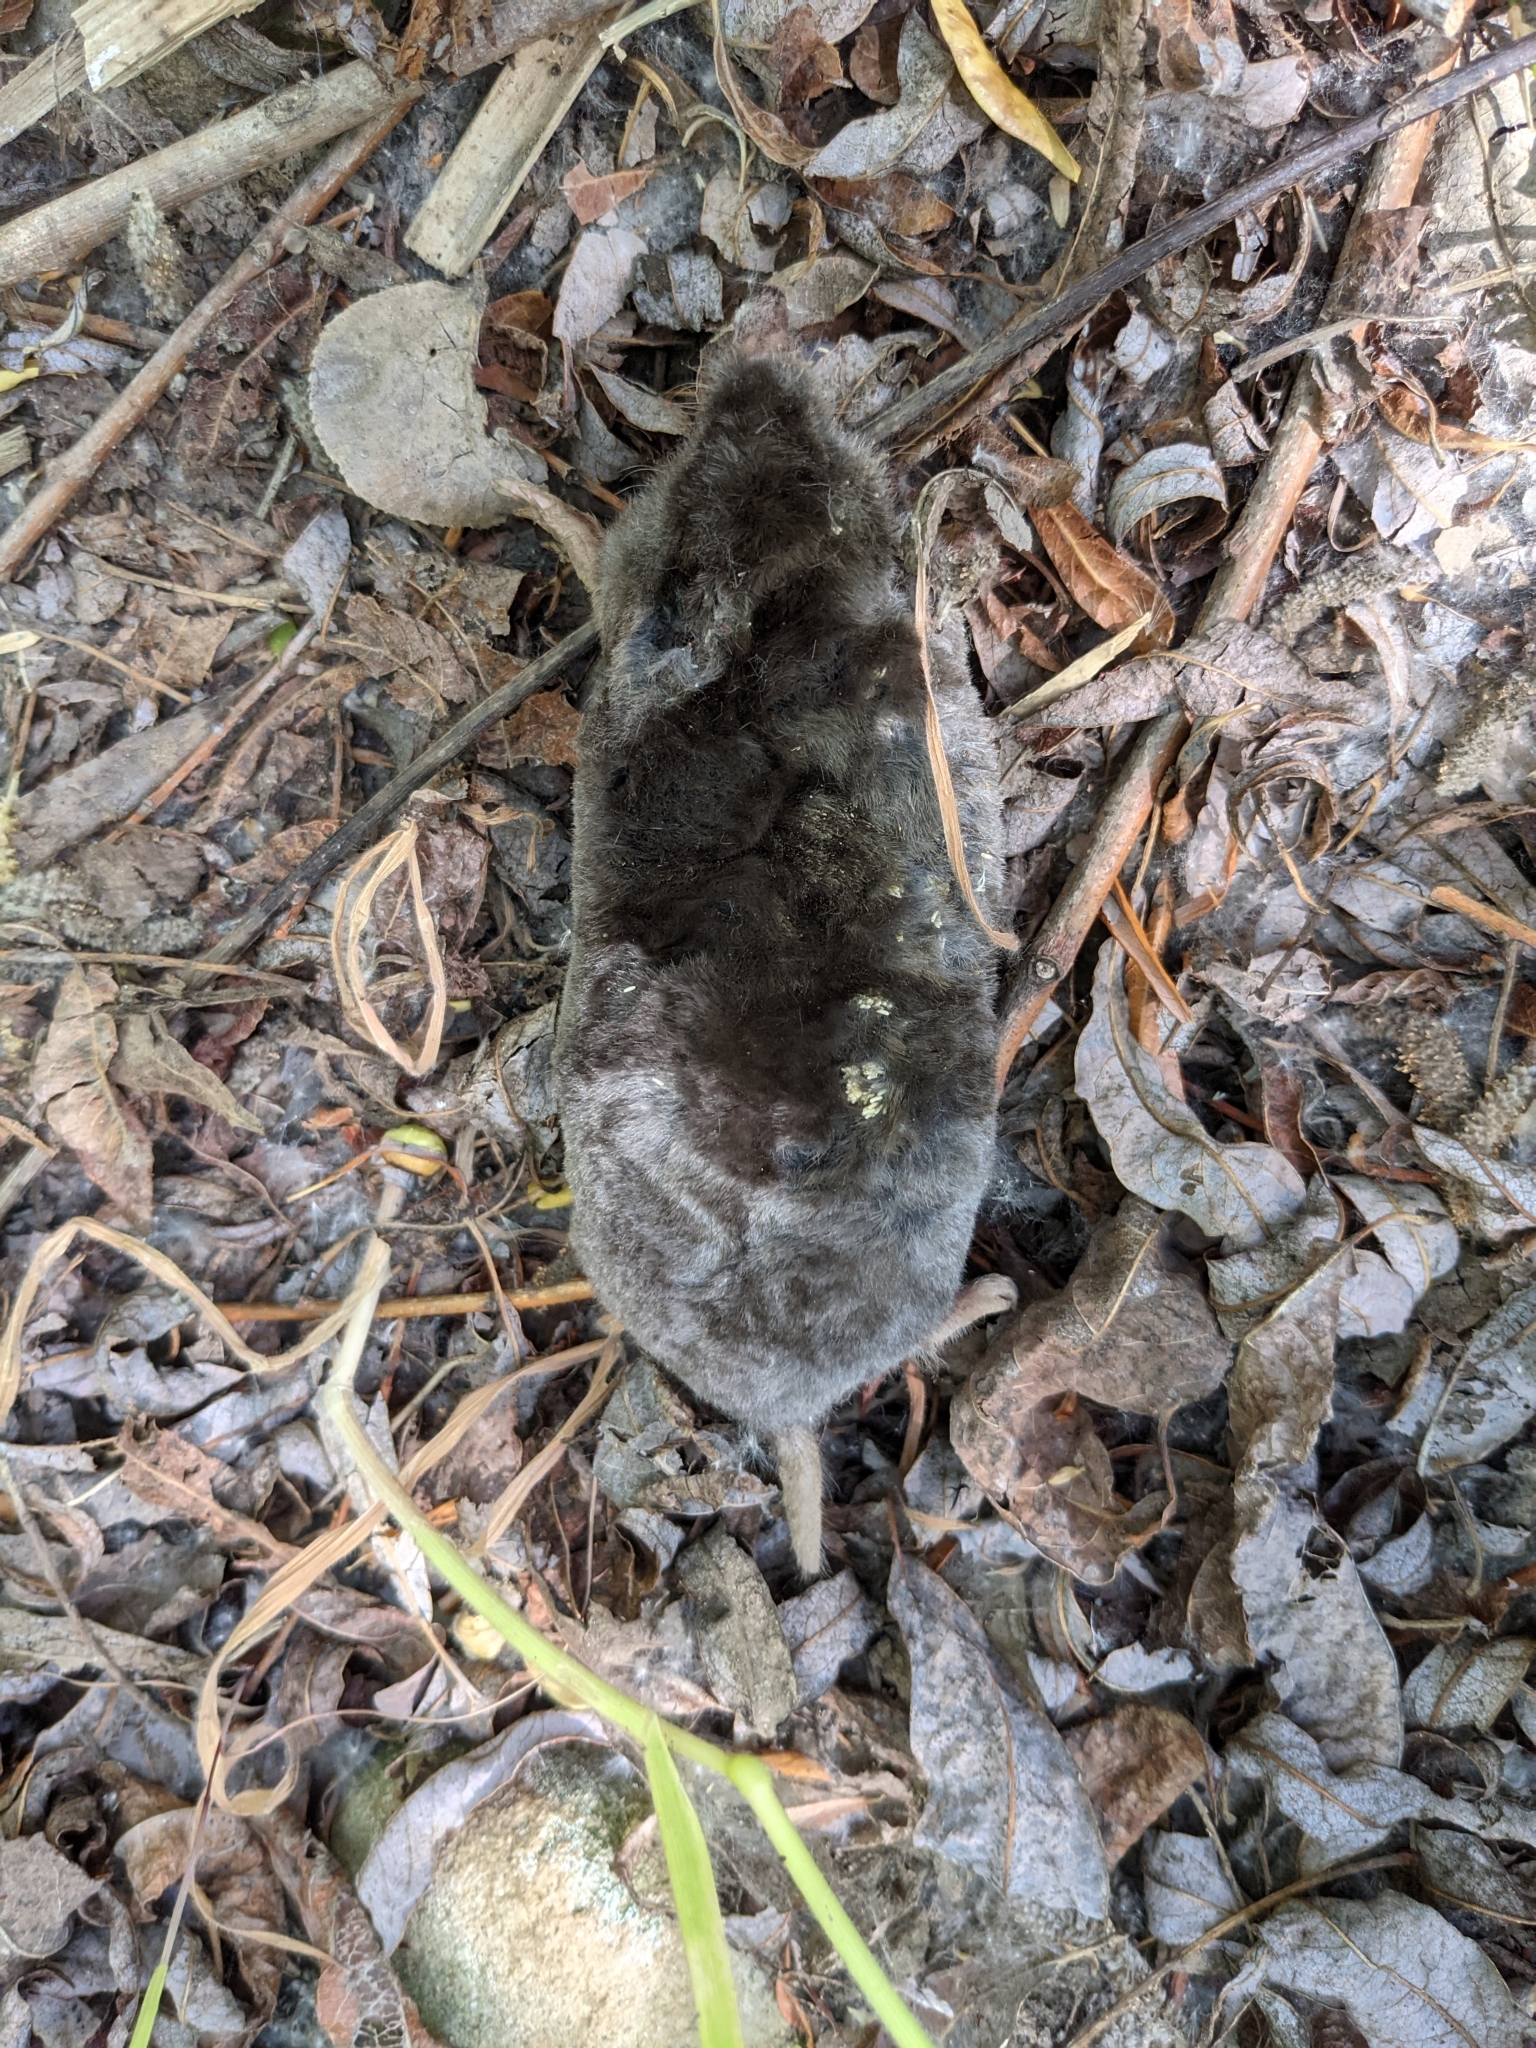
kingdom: Animalia
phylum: Chordata
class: Mammalia
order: Soricomorpha
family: Talpidae
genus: Scapanus
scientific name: Scapanus latimanus
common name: Broad-footed mole
